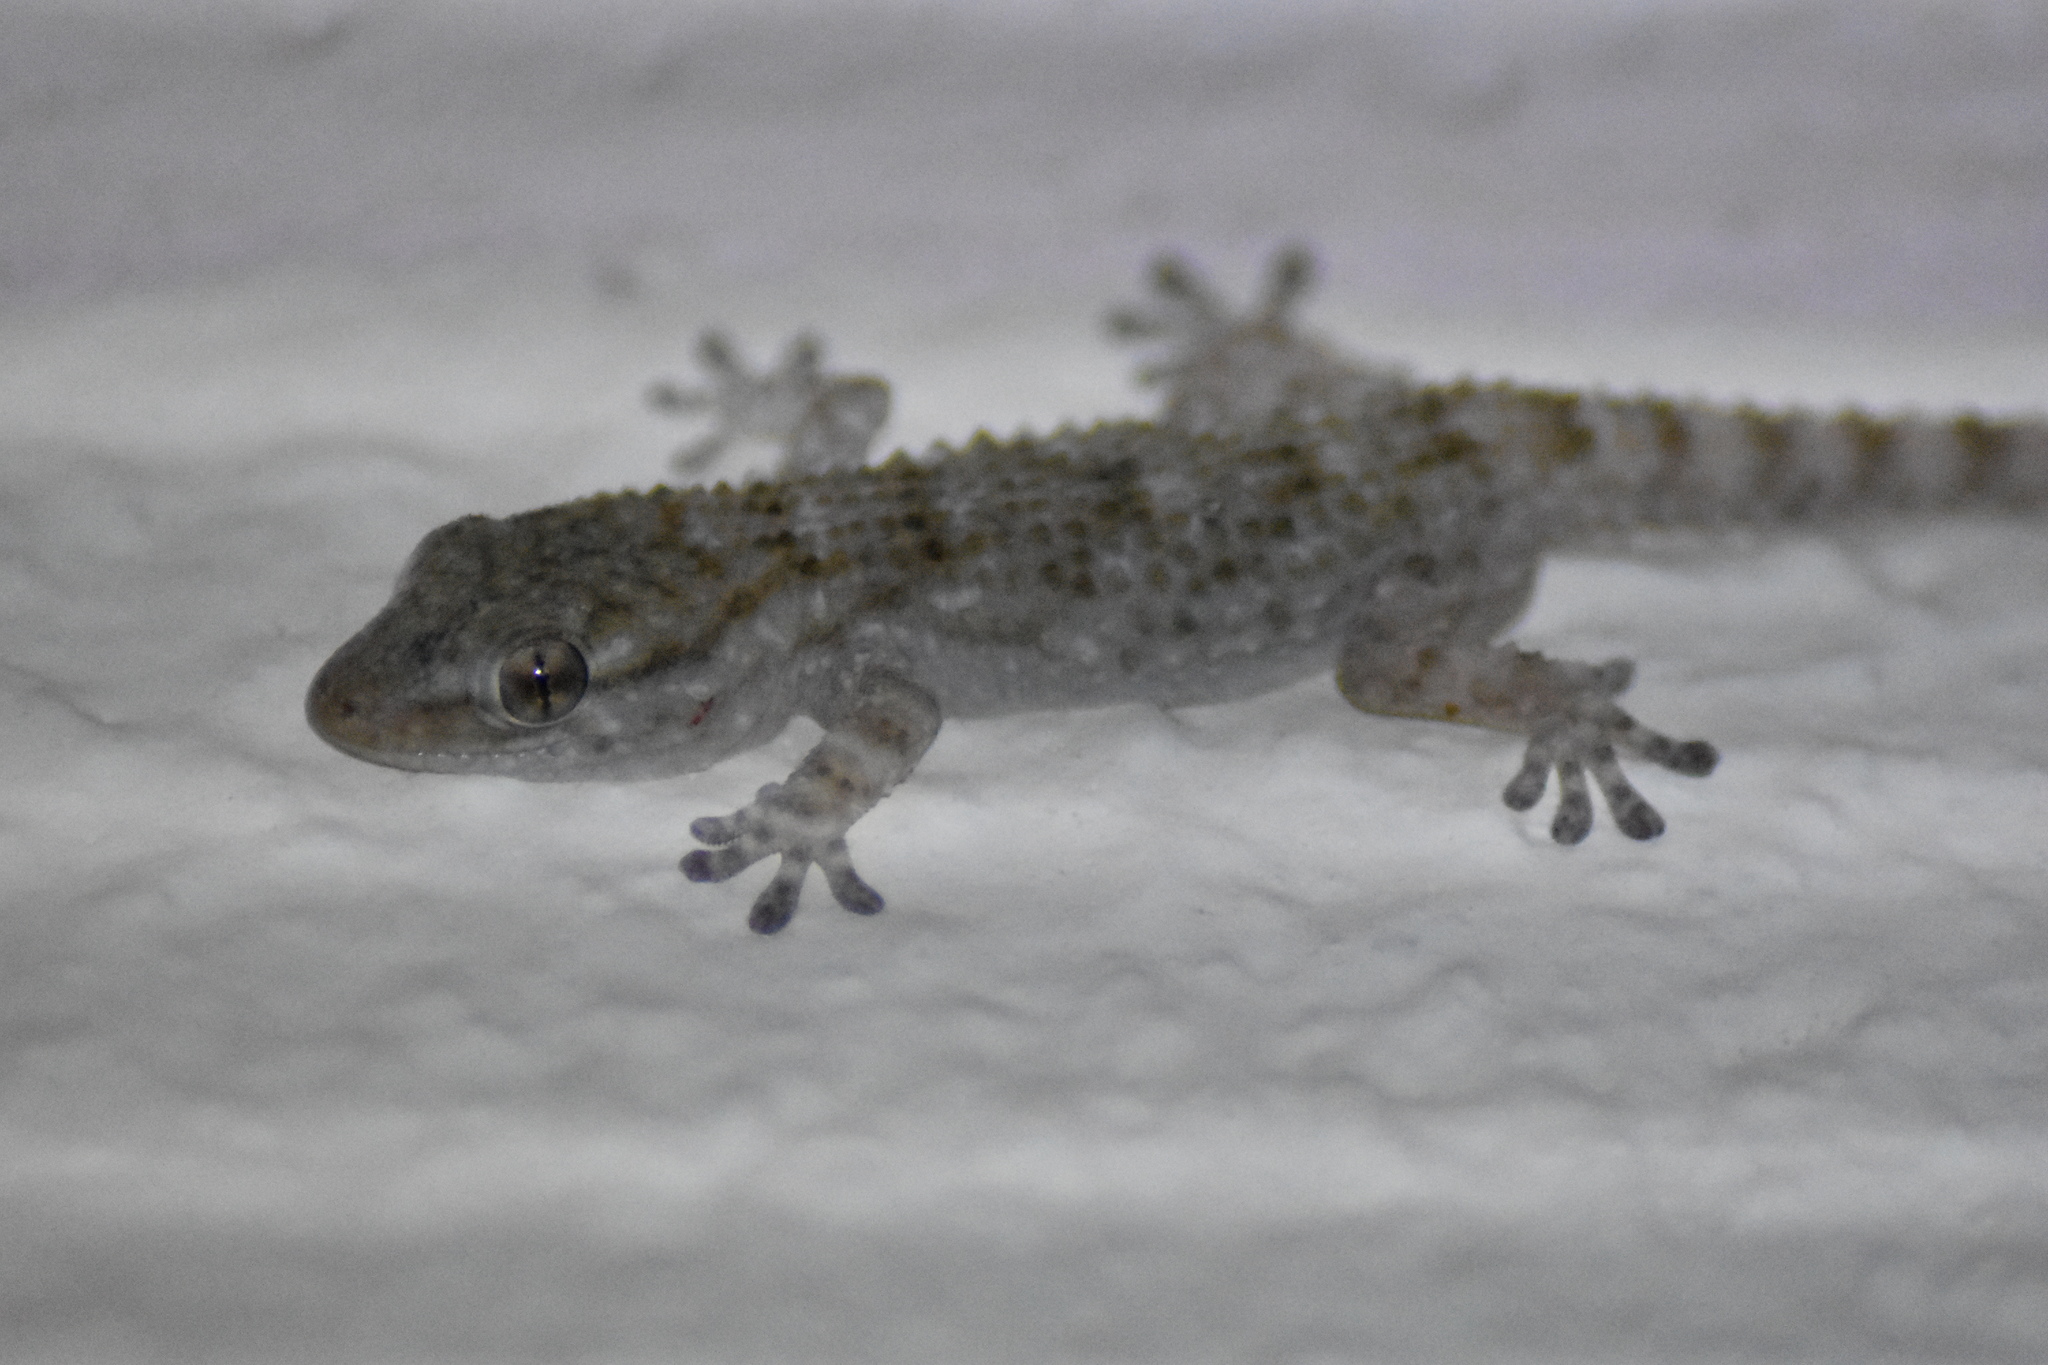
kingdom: Animalia
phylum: Chordata
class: Squamata
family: Phyllodactylidae
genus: Tarentola
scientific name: Tarentola mauritanica
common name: Moorish gecko
